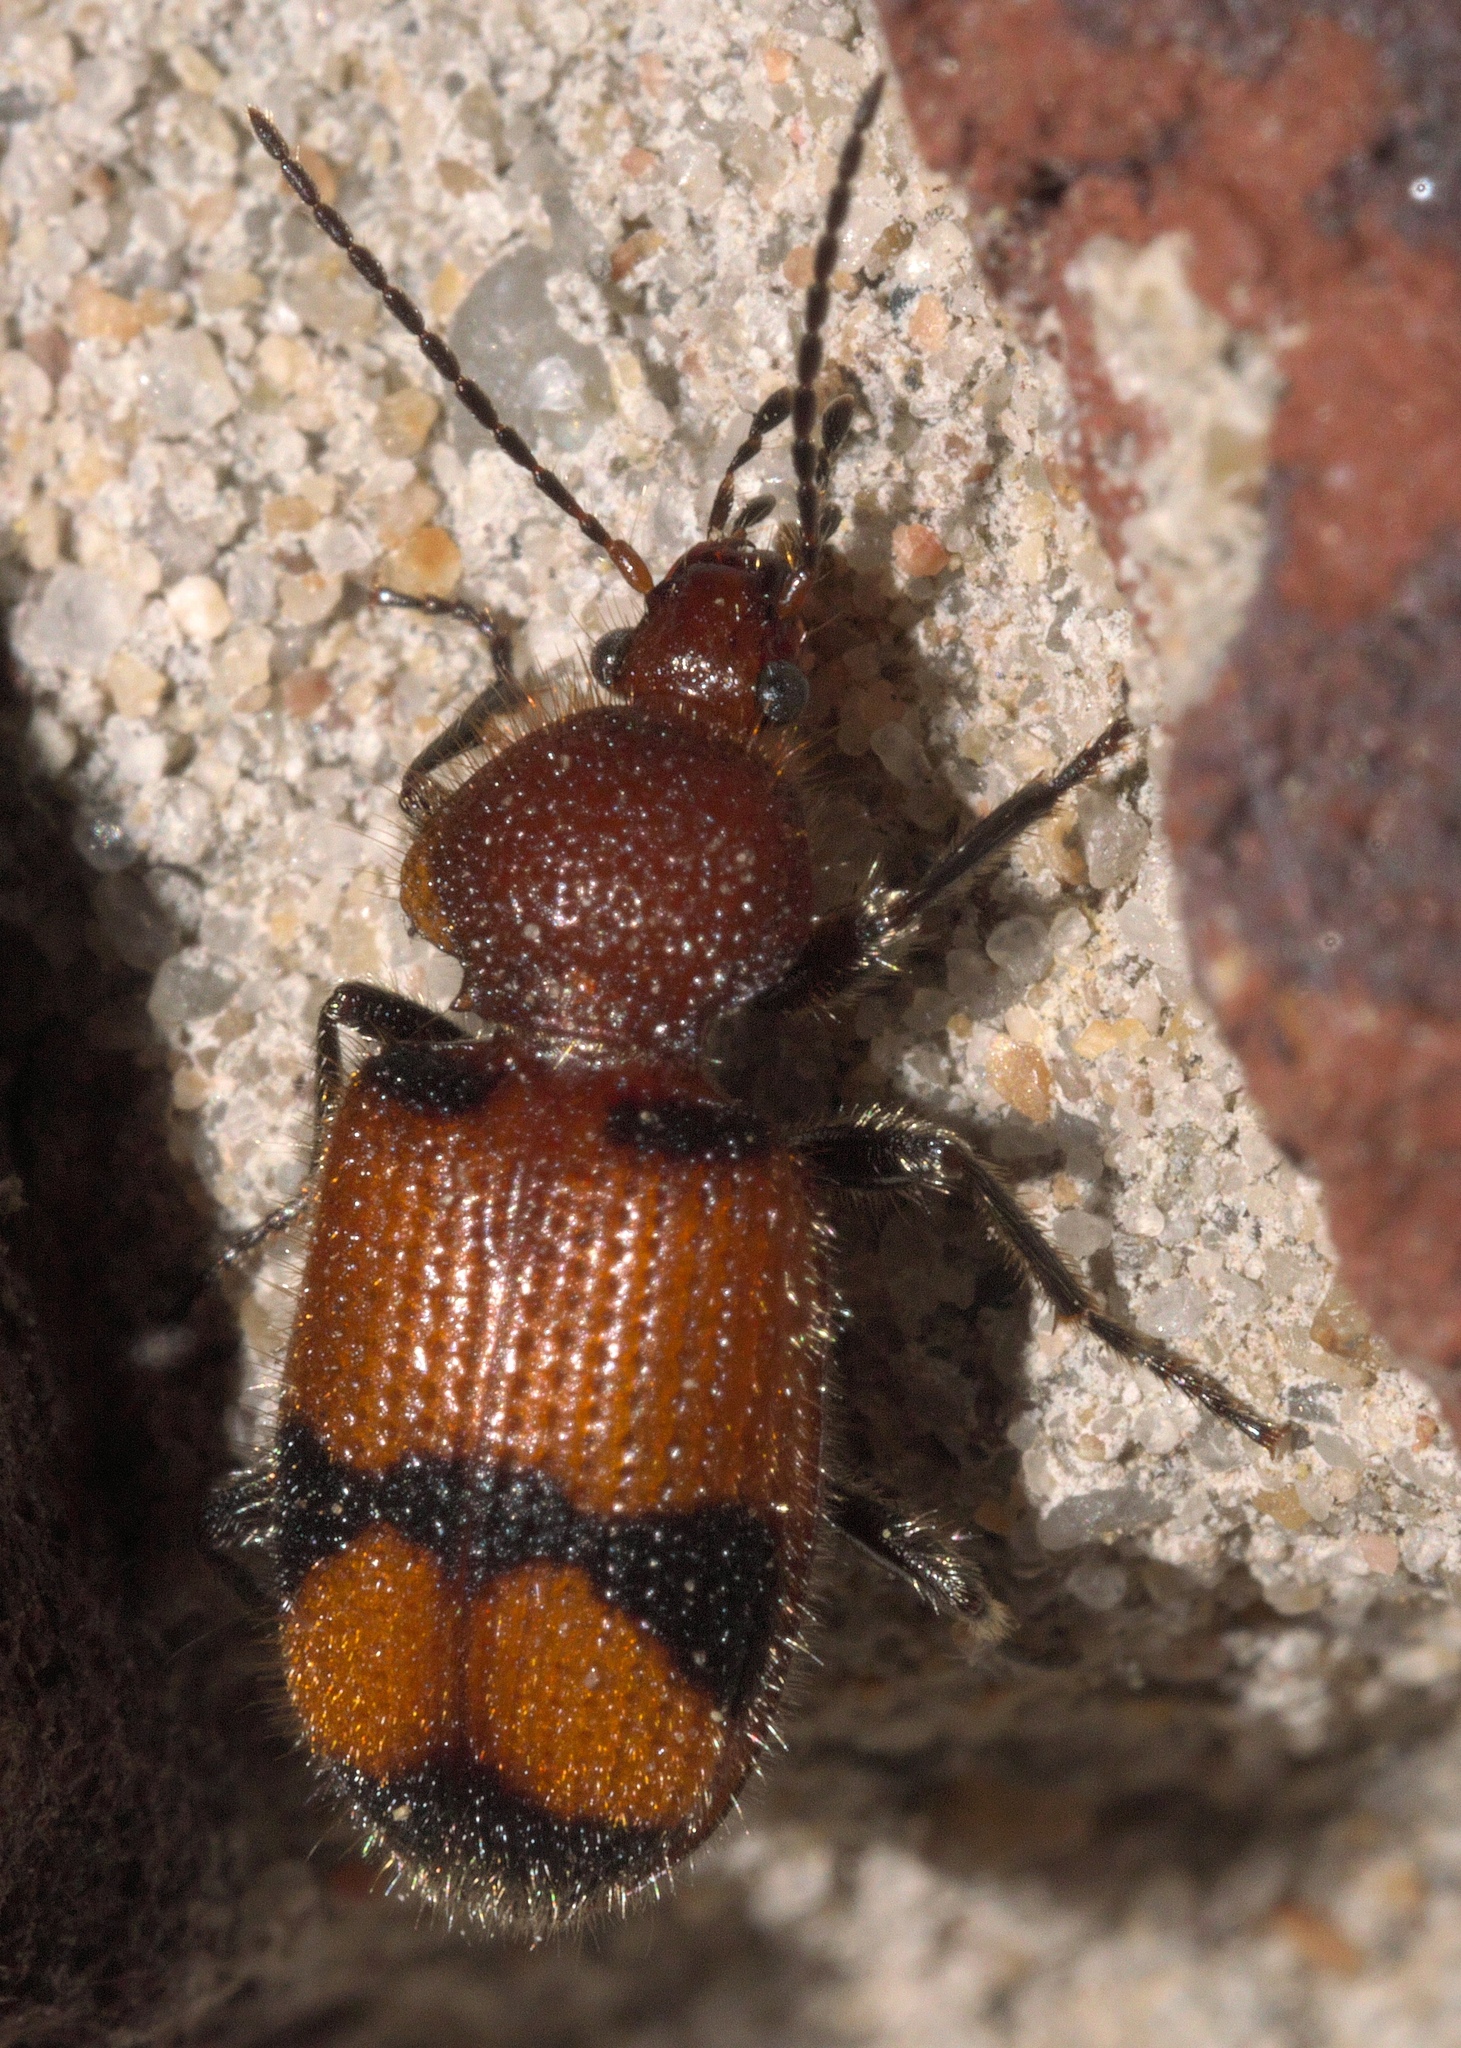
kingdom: Animalia
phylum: Arthropoda
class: Insecta
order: Coleoptera
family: Carabidae
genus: Panagaeus
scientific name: Panagaeus fasciatus
